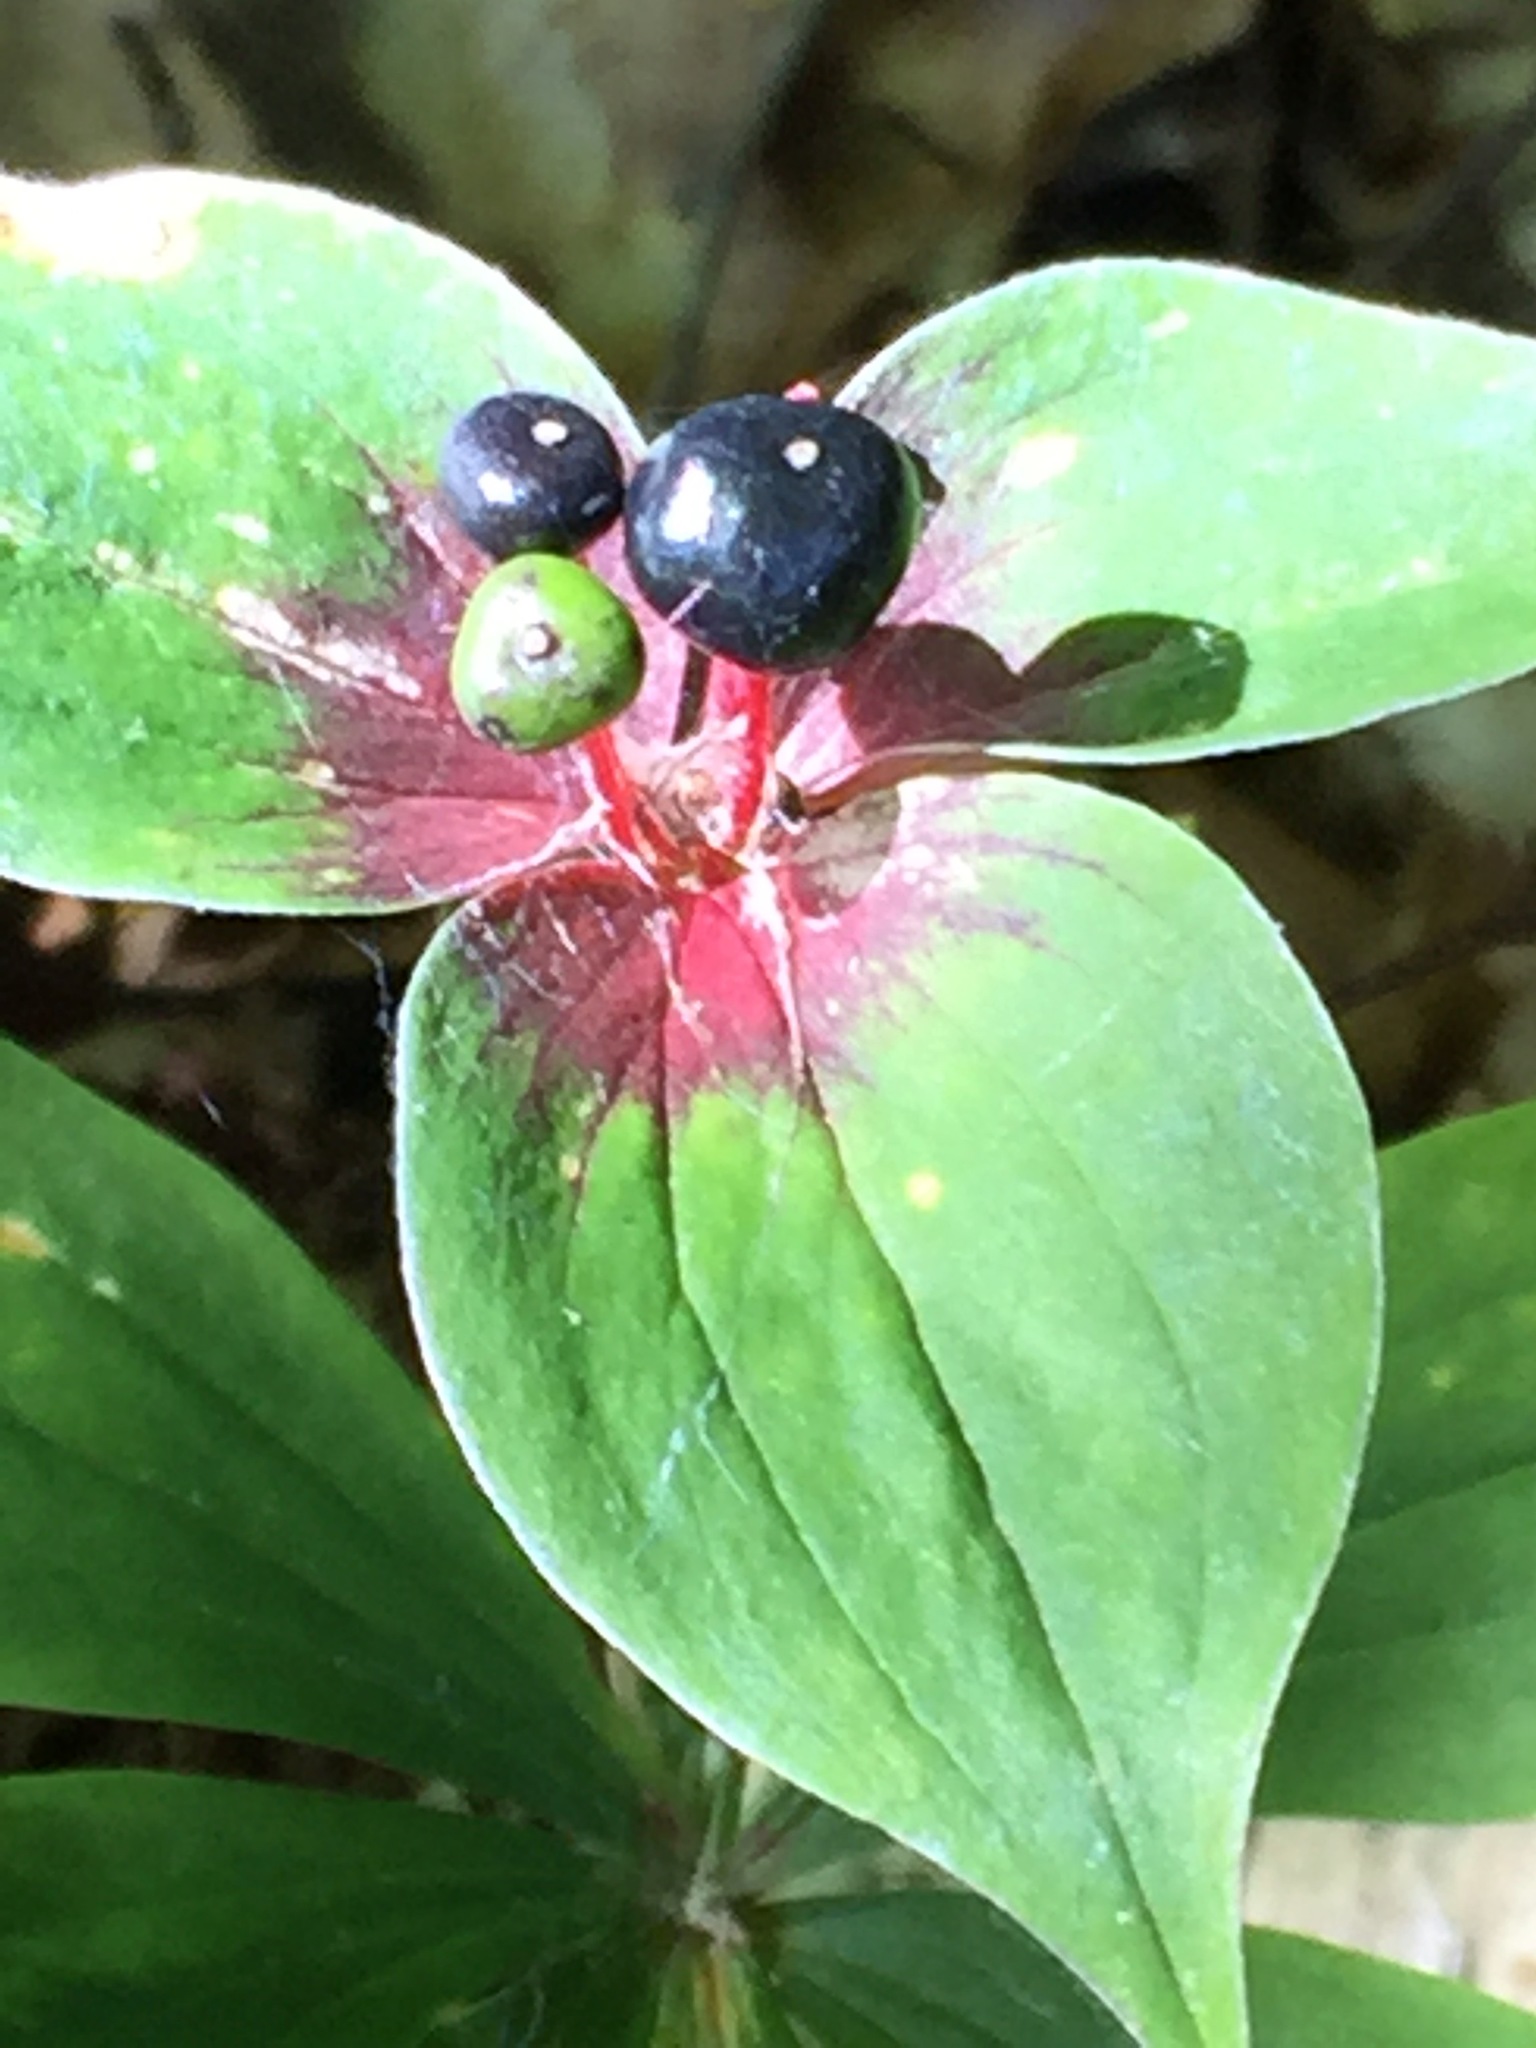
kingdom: Plantae
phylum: Tracheophyta
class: Liliopsida
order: Liliales
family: Liliaceae
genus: Medeola
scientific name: Medeola virginiana
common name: Indian cucumber-root
